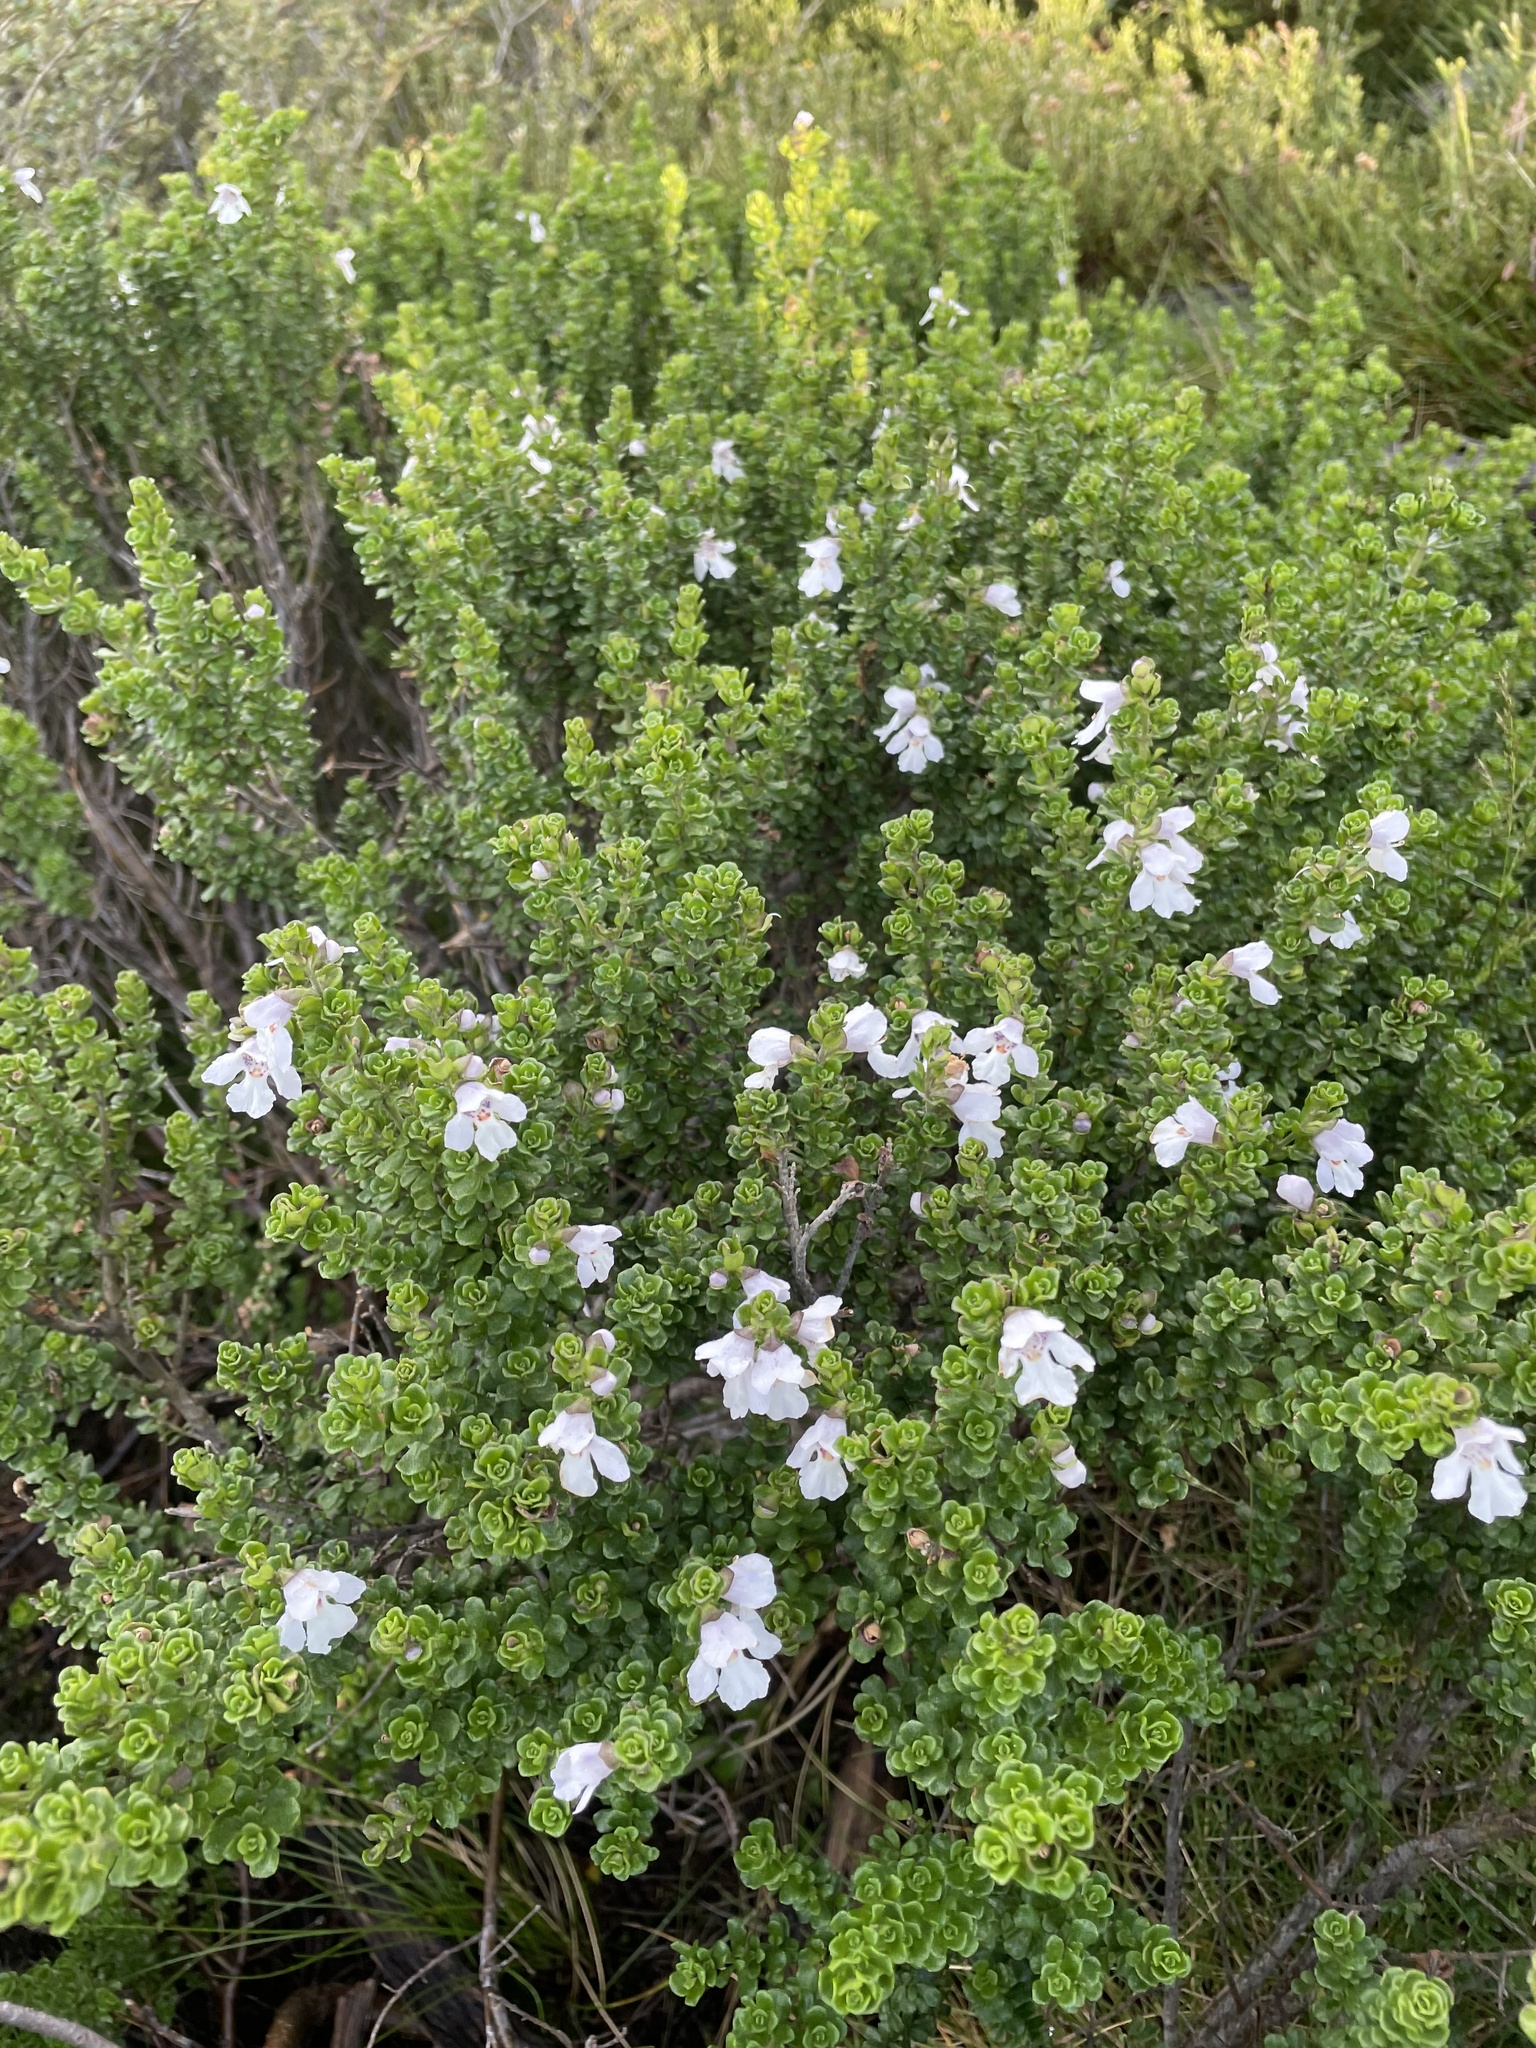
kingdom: Plantae
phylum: Tracheophyta
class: Magnoliopsida
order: Lamiales
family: Lamiaceae
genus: Prostanthera
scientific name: Prostanthera cuneata
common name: Alpine mintbush
